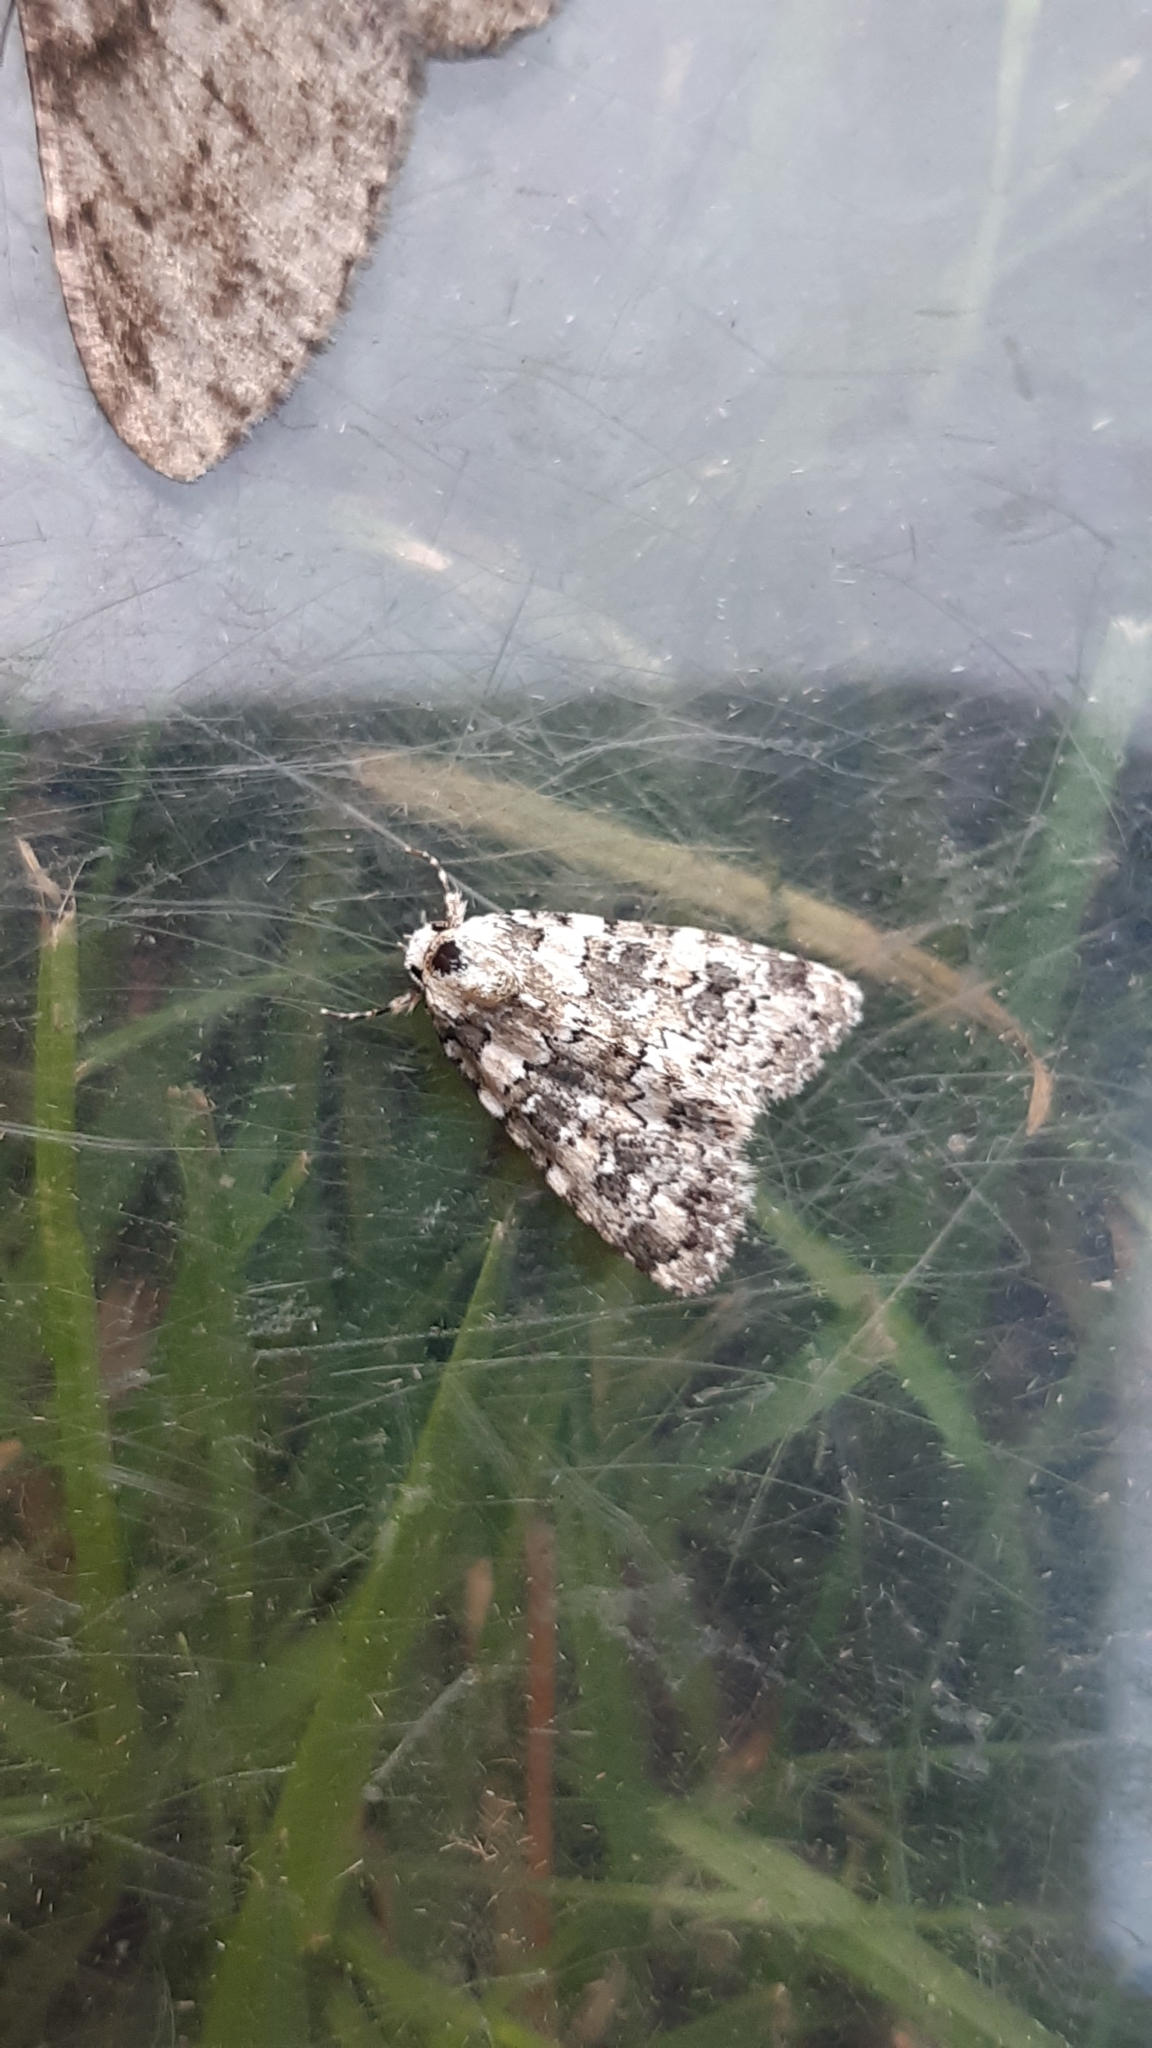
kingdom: Animalia
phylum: Arthropoda
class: Insecta
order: Lepidoptera
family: Noctuidae
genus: Bryophila
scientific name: Bryophila domestica
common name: Marbled beauty
